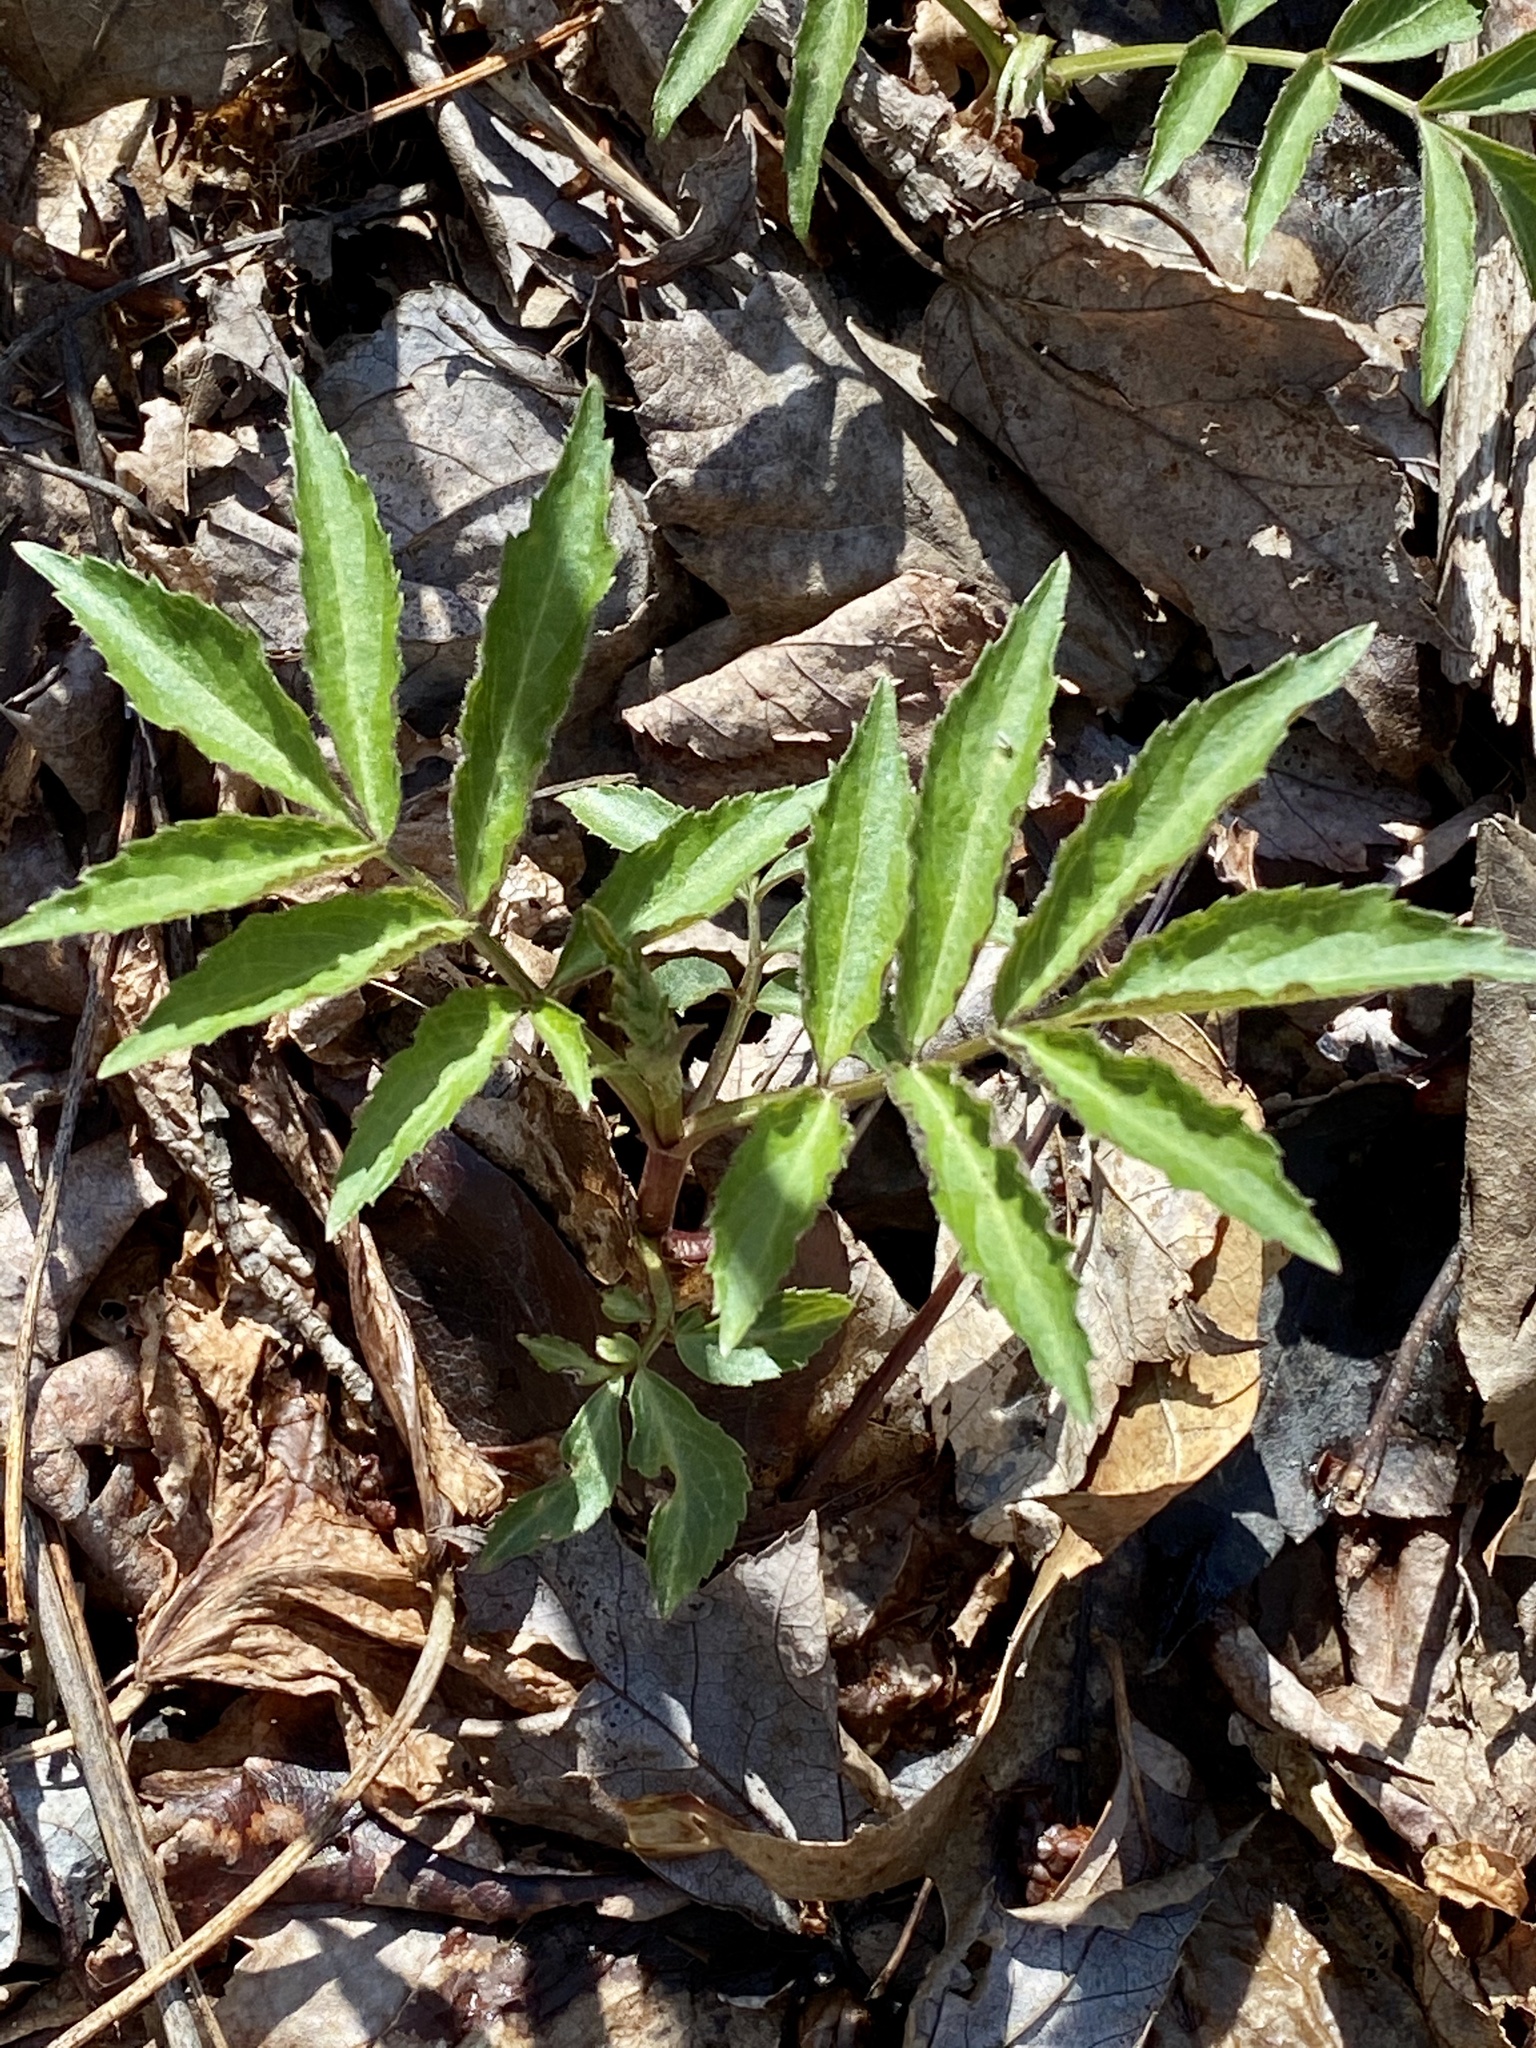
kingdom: Plantae
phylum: Tracheophyta
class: Magnoliopsida
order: Dipsacales
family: Viburnaceae
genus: Sambucus
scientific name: Sambucus
